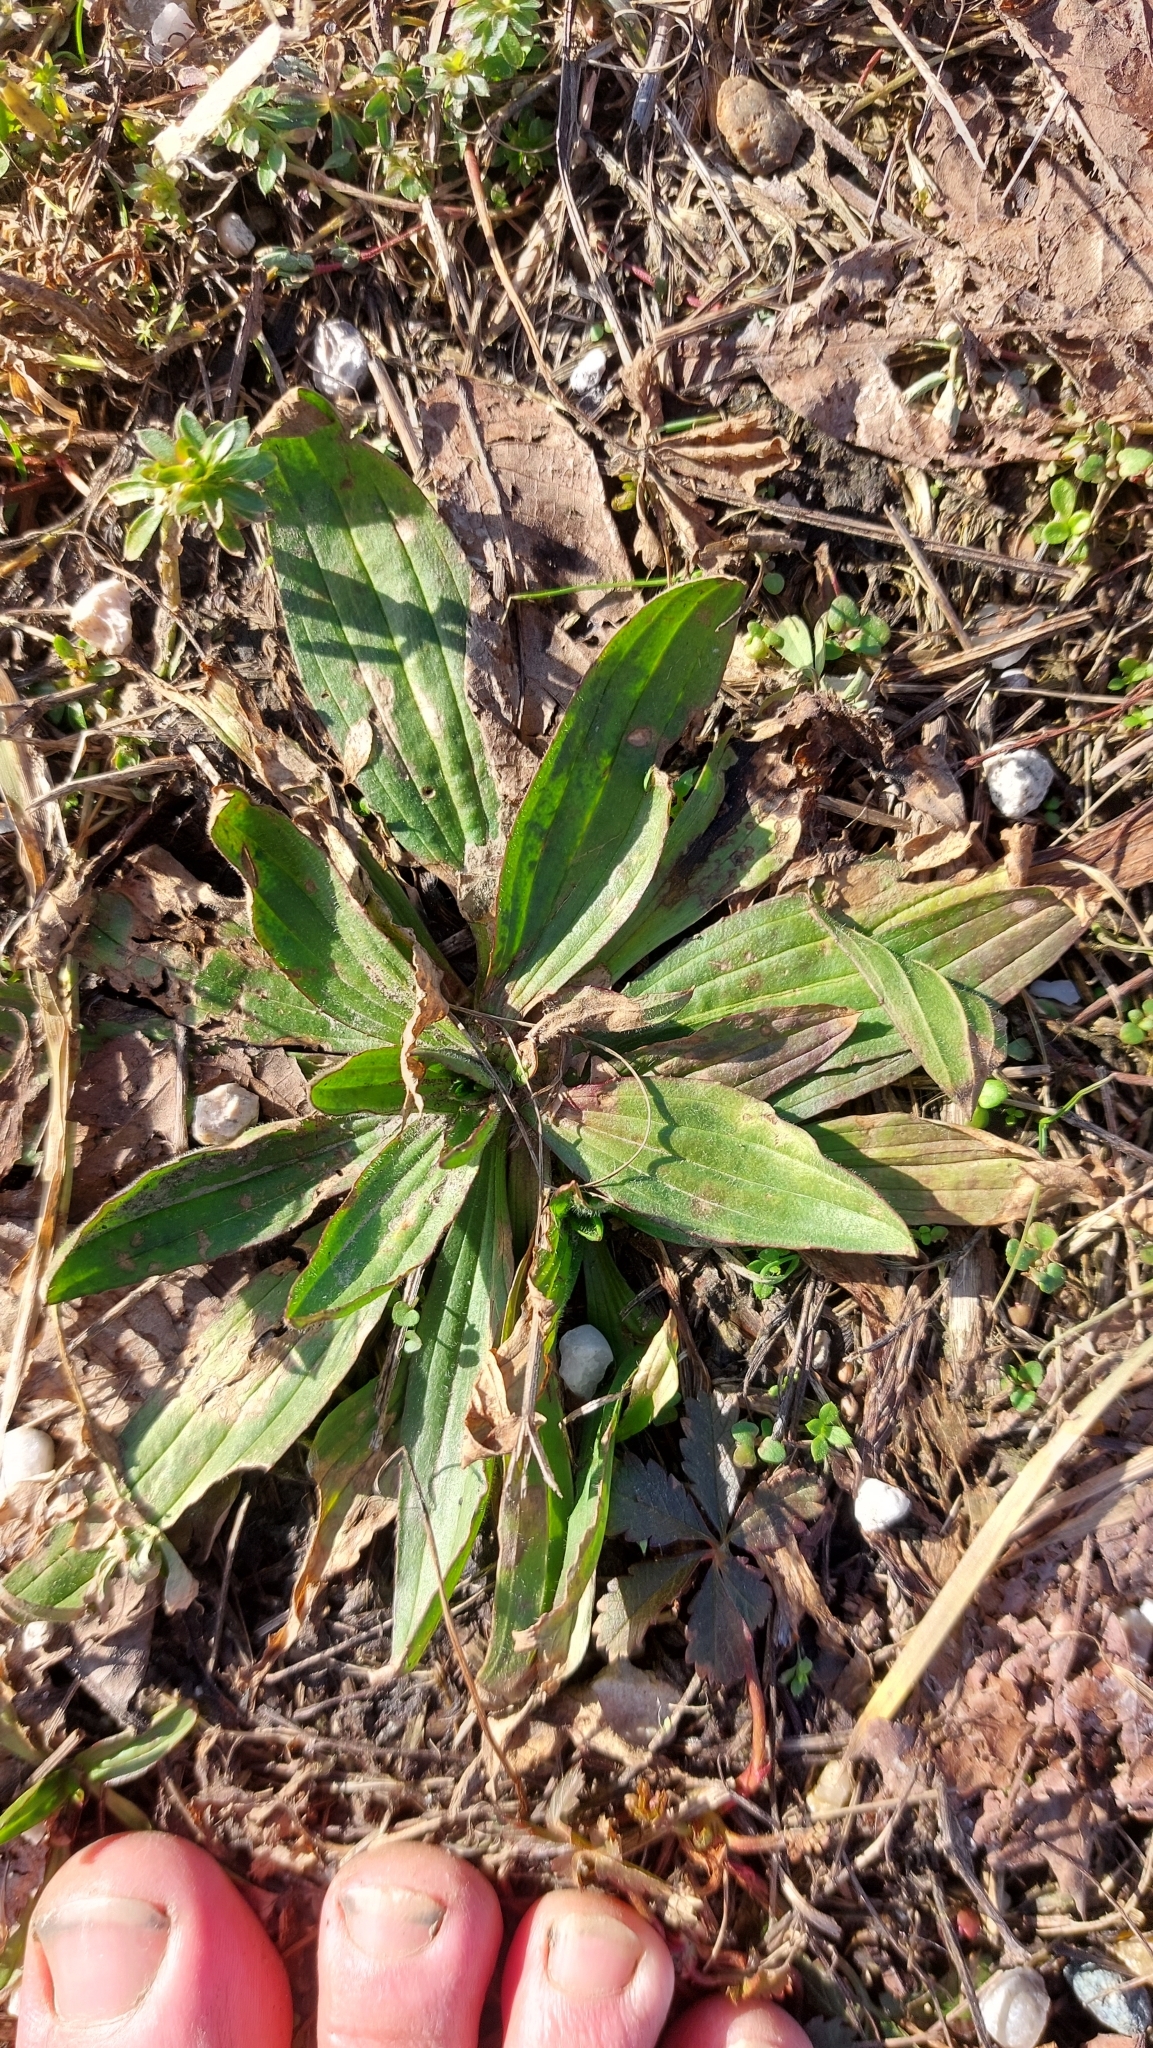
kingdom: Plantae
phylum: Tracheophyta
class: Magnoliopsida
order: Lamiales
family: Plantaginaceae
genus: Plantago
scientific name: Plantago lanceolata
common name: Ribwort plantain
